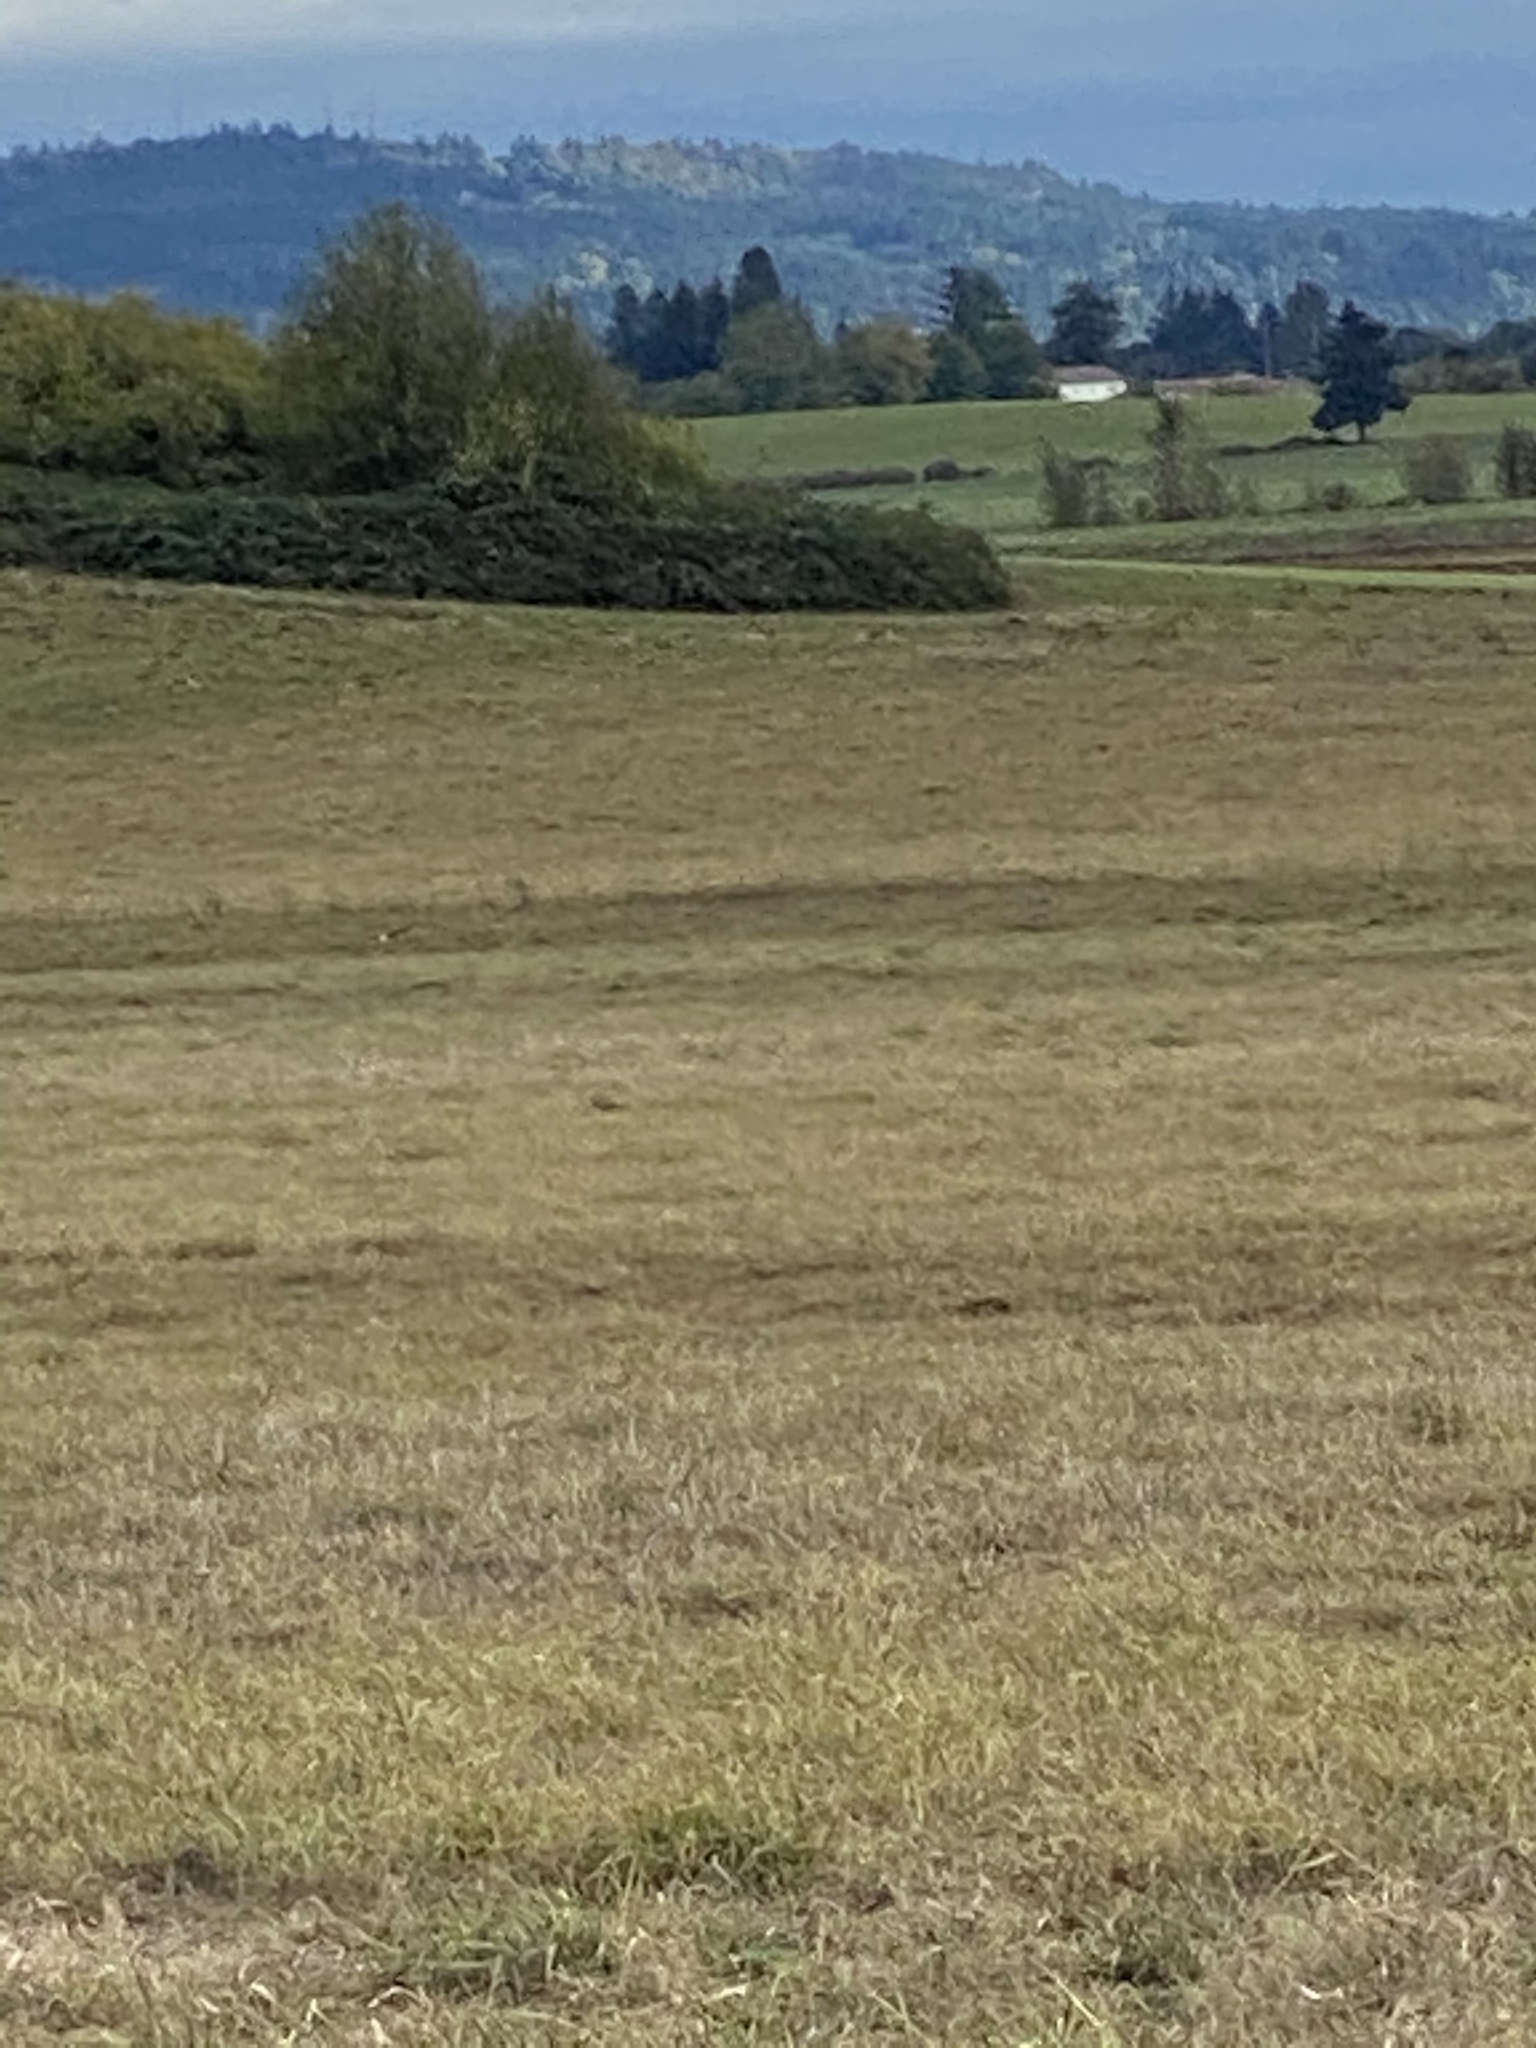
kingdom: Animalia
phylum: Chordata
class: Aves
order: Accipitriformes
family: Accipitridae
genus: Circus
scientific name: Circus cyaneus
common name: Hen harrier
